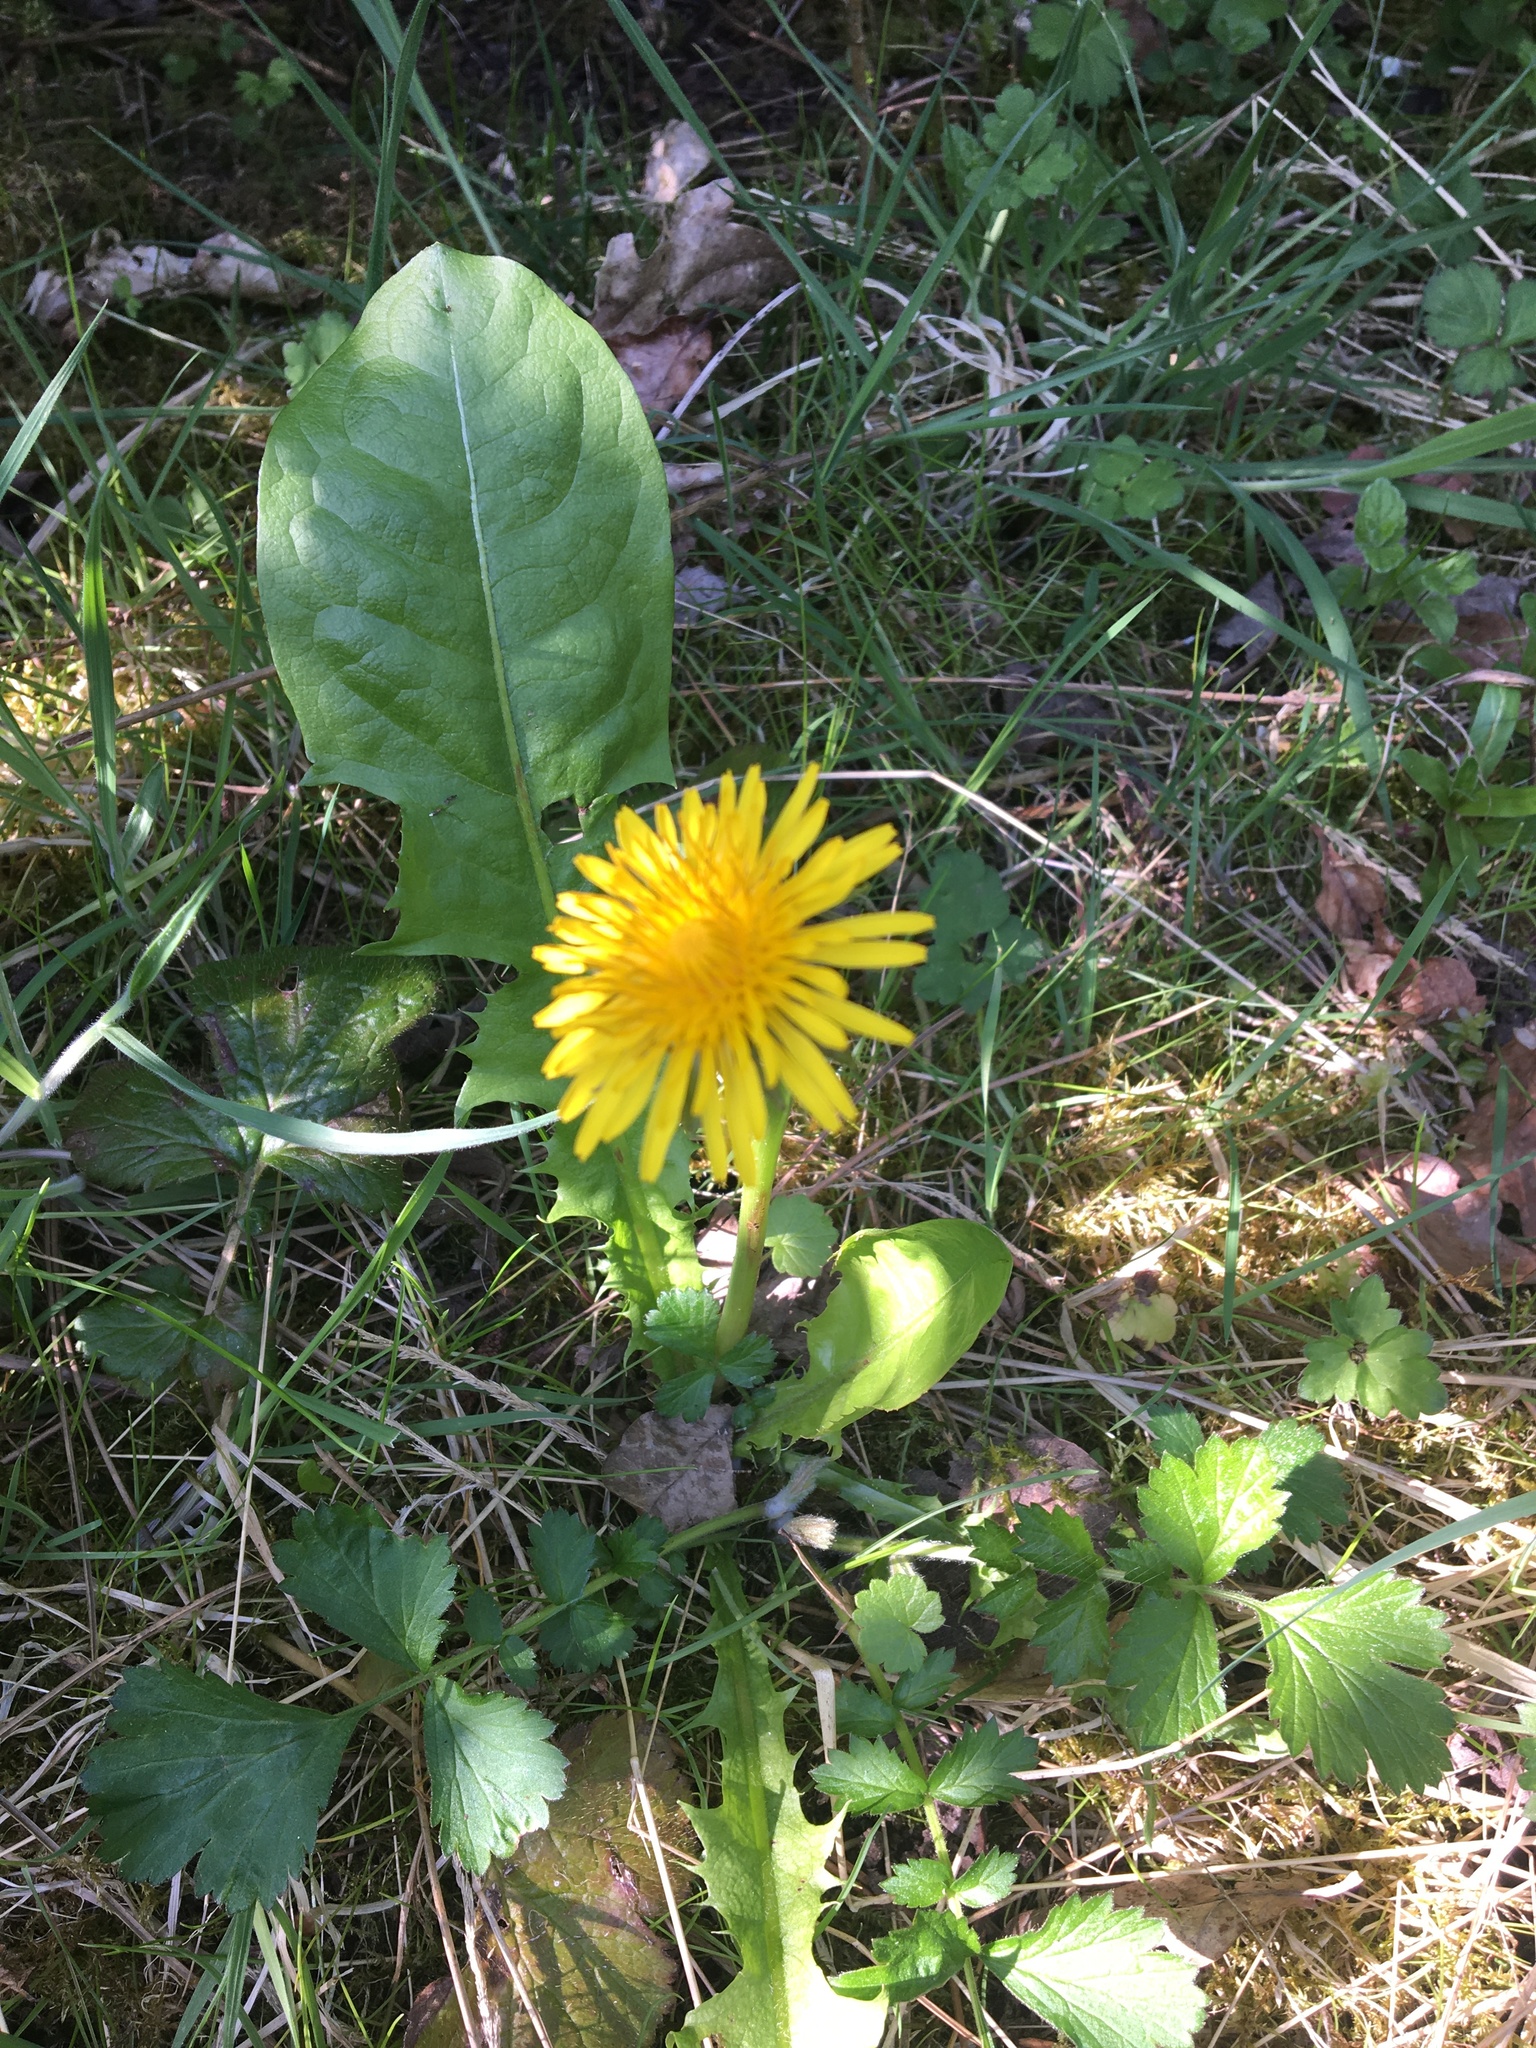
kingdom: Plantae
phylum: Tracheophyta
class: Magnoliopsida
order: Asterales
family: Asteraceae
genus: Taraxacum
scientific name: Taraxacum officinale
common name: Common dandelion
